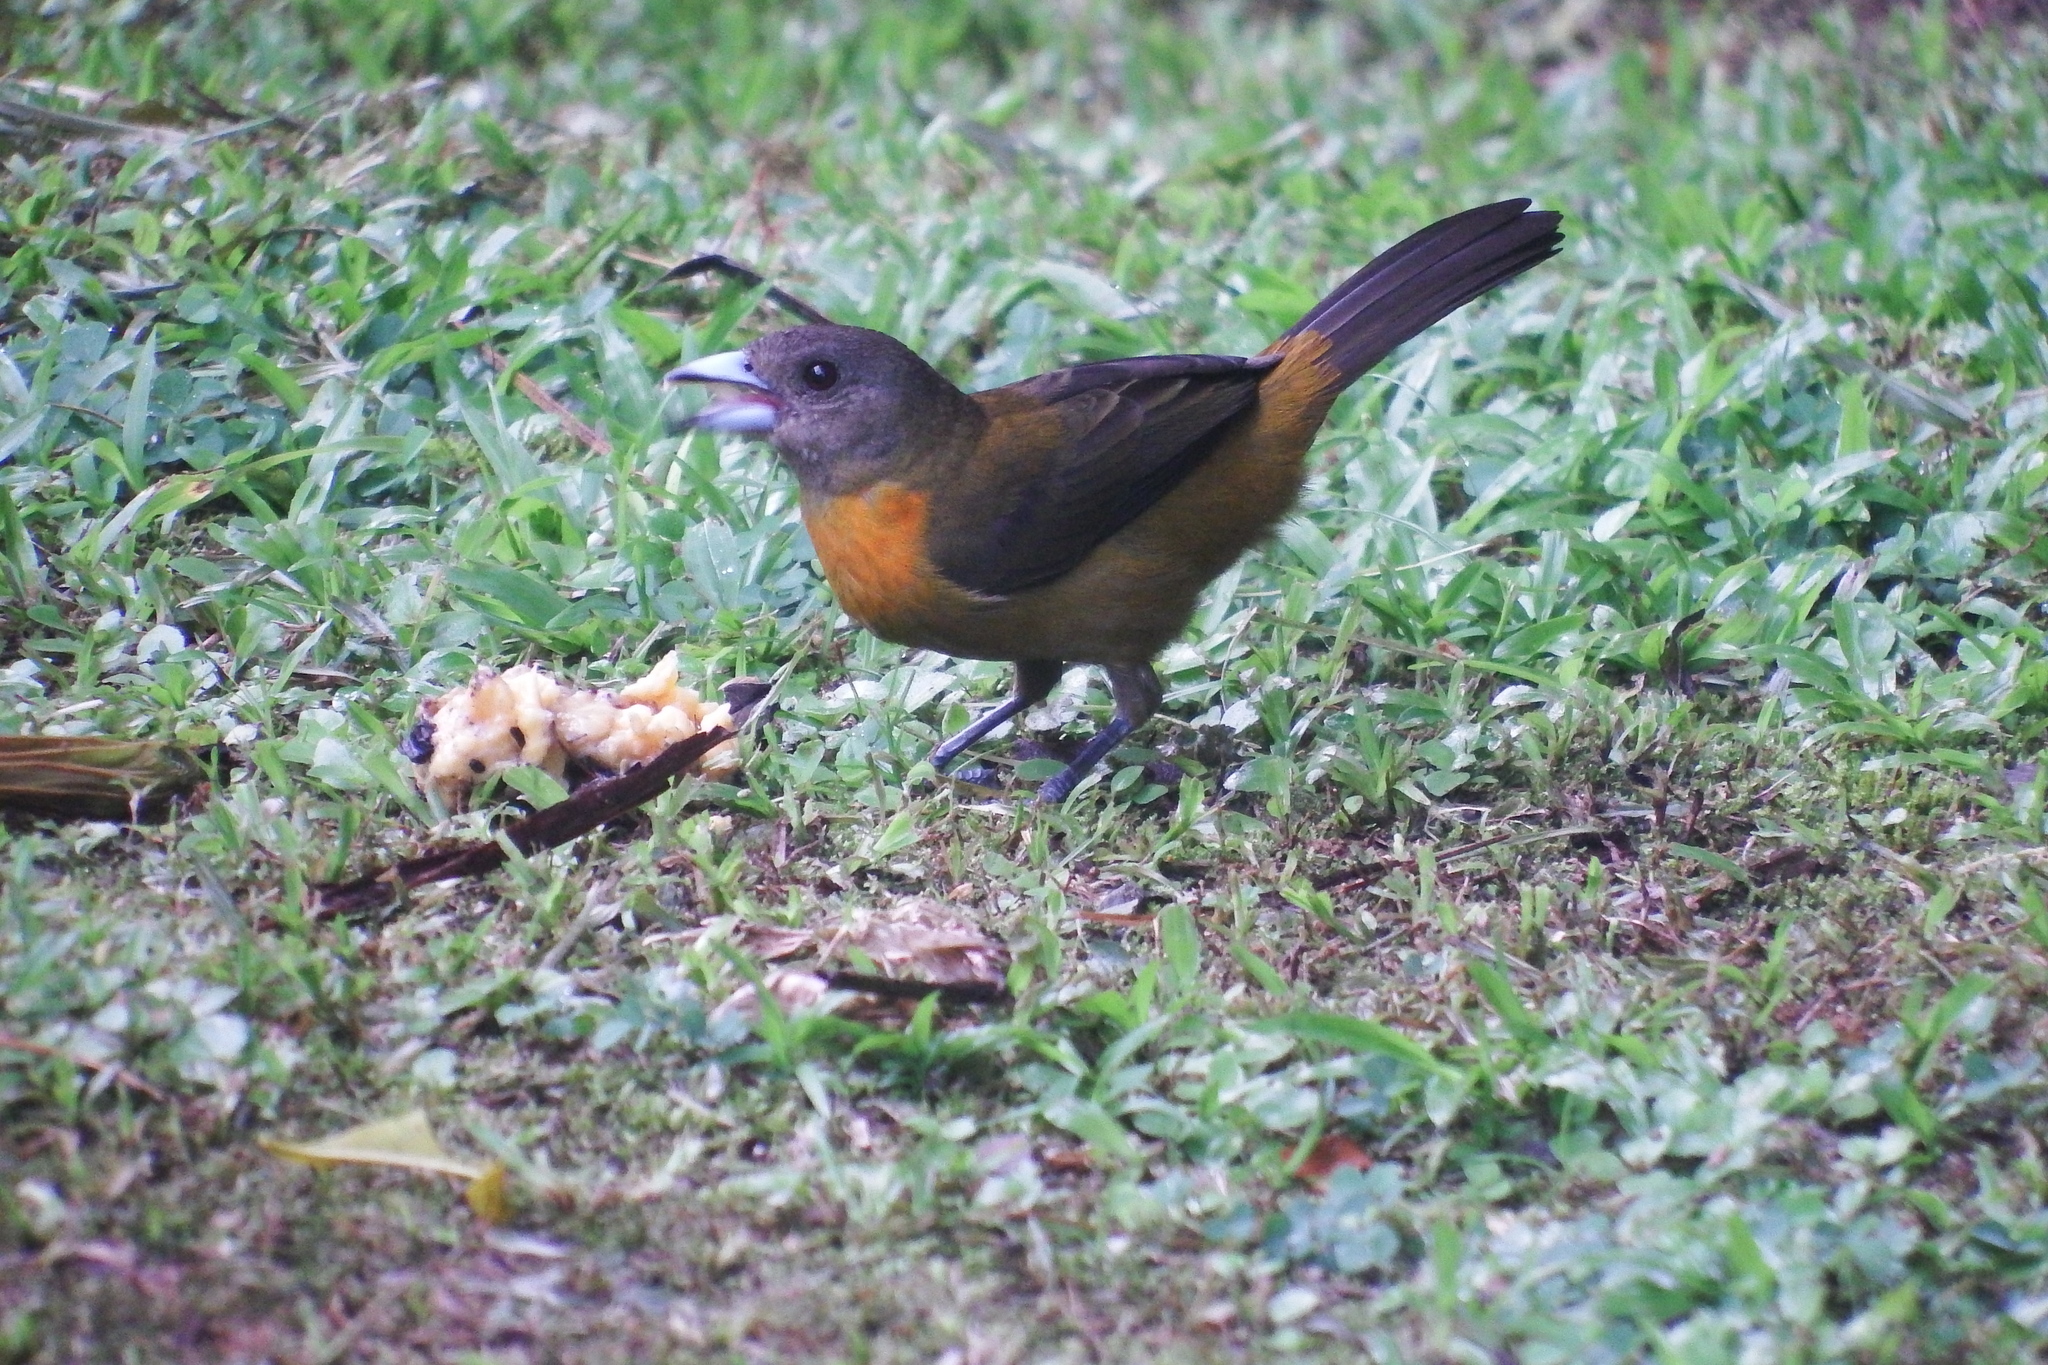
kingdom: Animalia
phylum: Chordata
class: Aves
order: Passeriformes
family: Thraupidae
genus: Ramphocelus
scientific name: Ramphocelus passerinii
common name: Passerini's tanager
